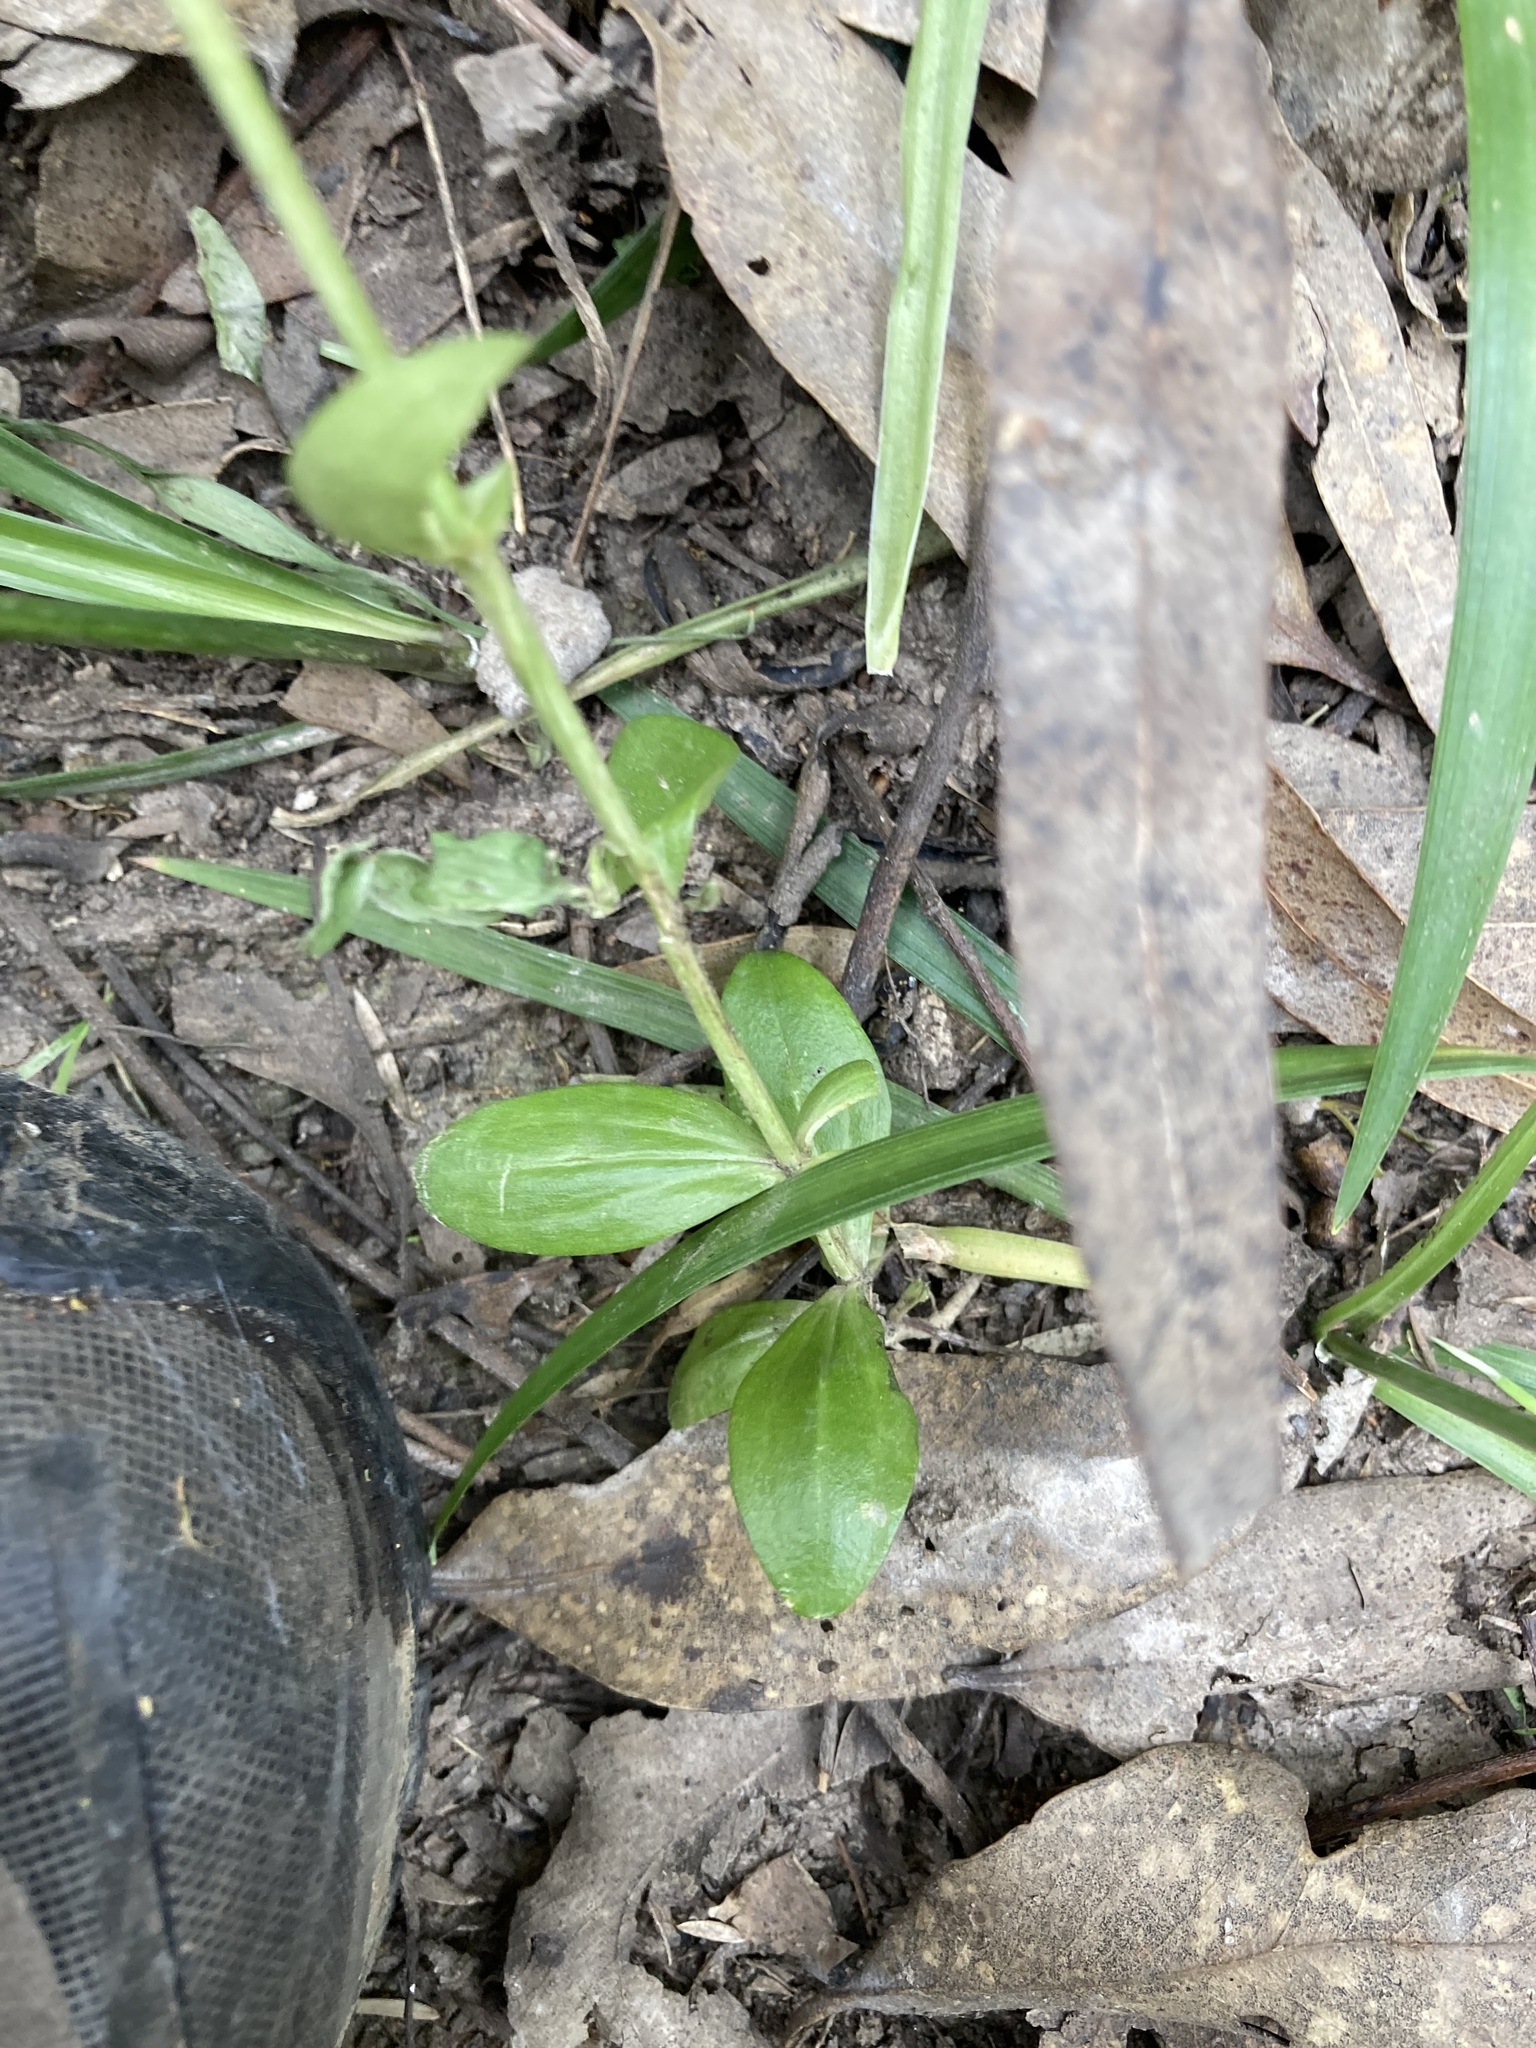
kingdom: Plantae
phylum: Tracheophyta
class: Magnoliopsida
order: Gentianales
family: Gentianaceae
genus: Centaurium
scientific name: Centaurium erythraea
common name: Common centaury
